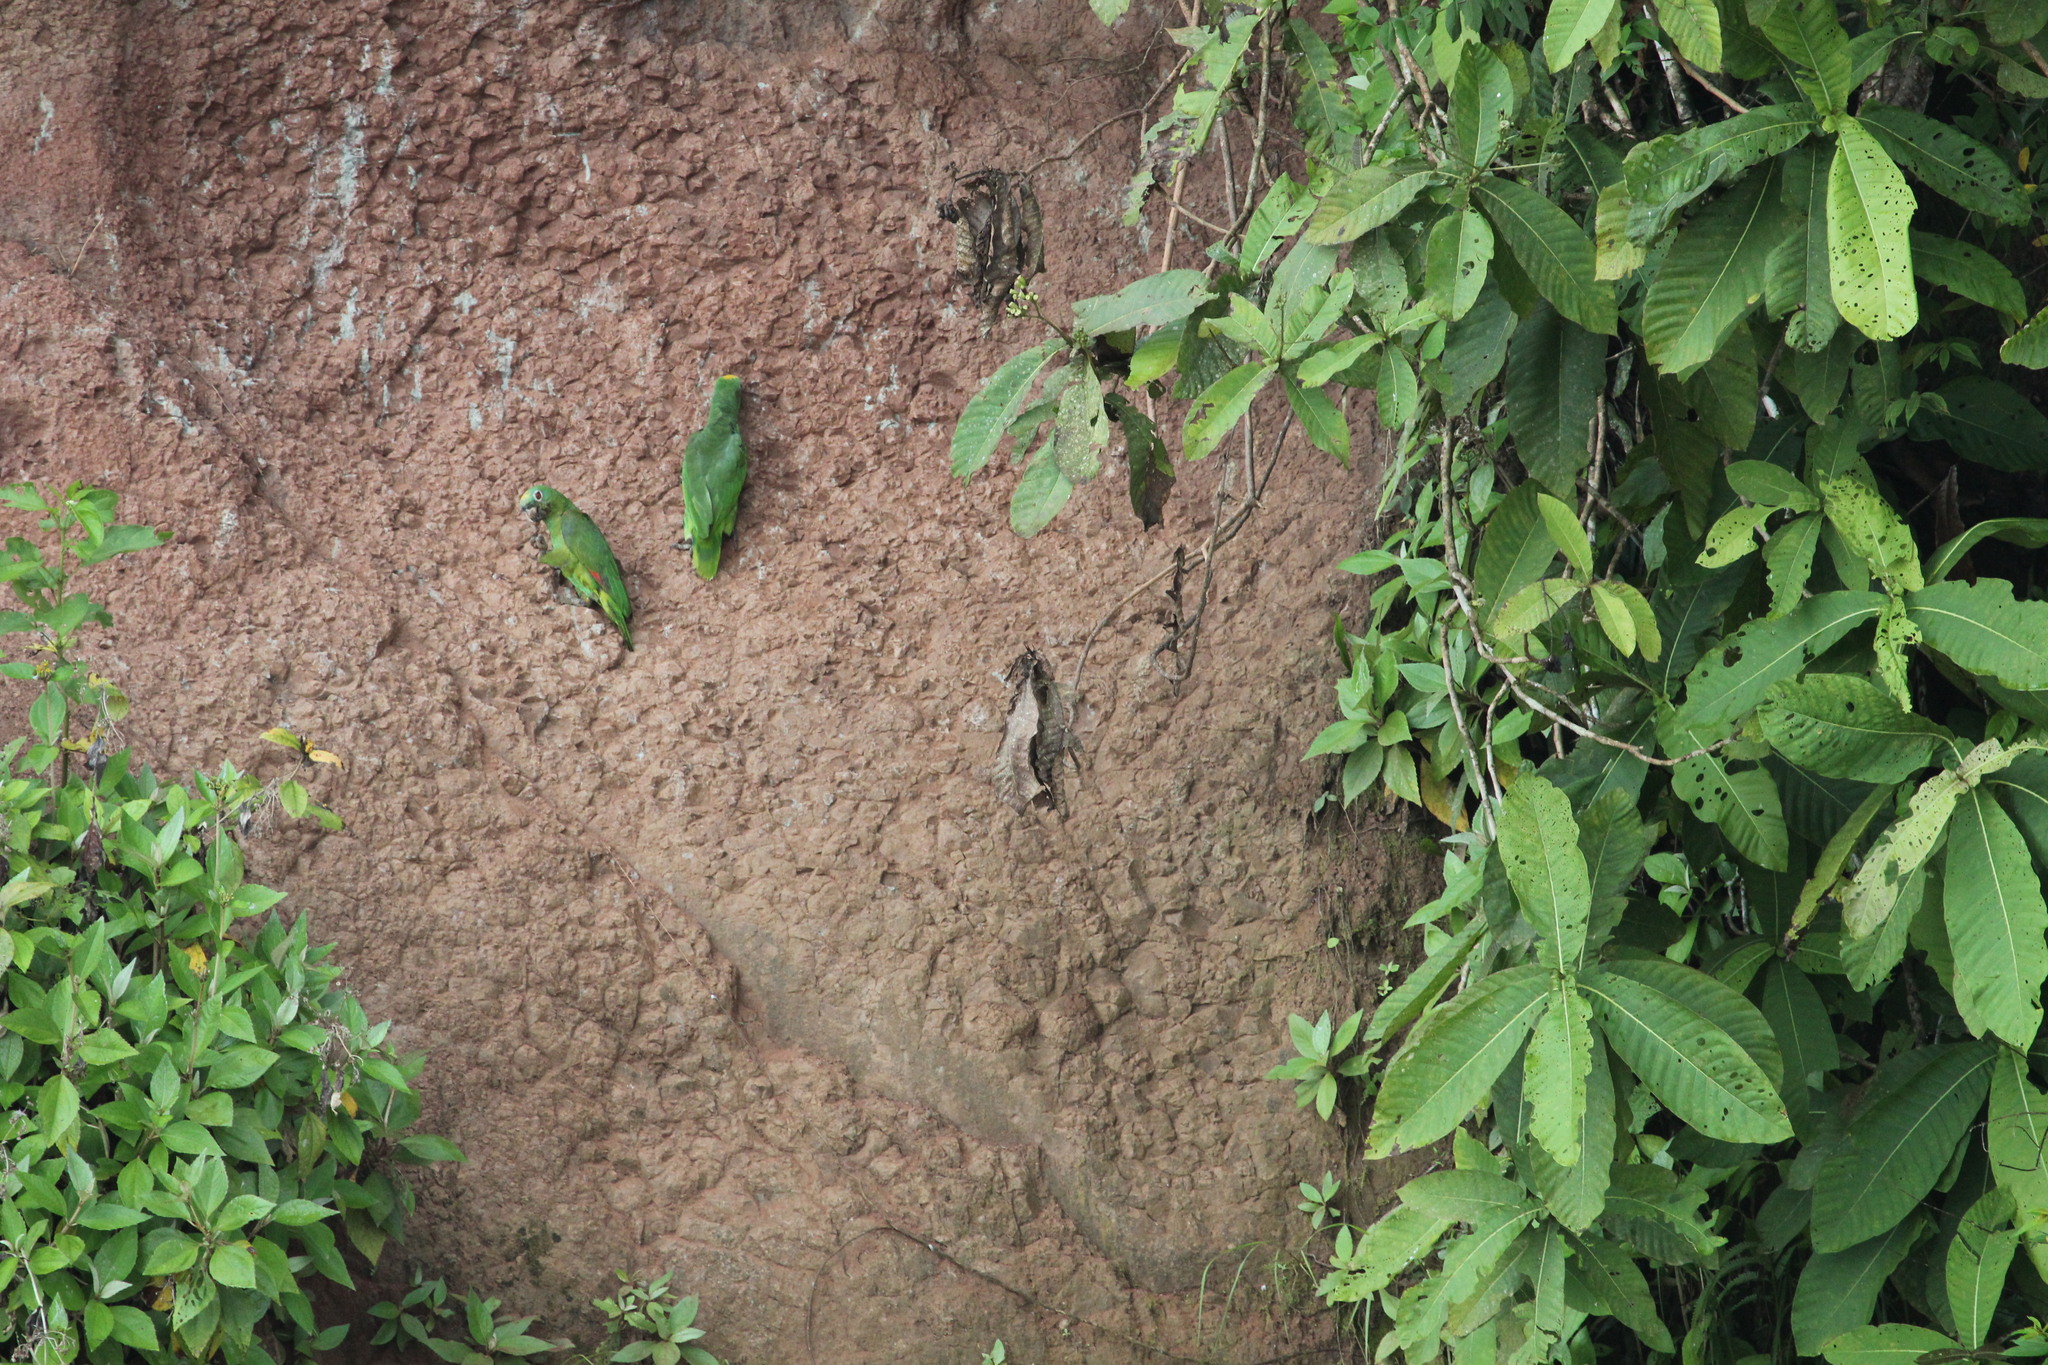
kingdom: Animalia
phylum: Chordata
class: Aves
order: Psittaciformes
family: Psittacidae
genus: Amazona
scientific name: Amazona ochrocephala
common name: Yellow-crowned amazon
